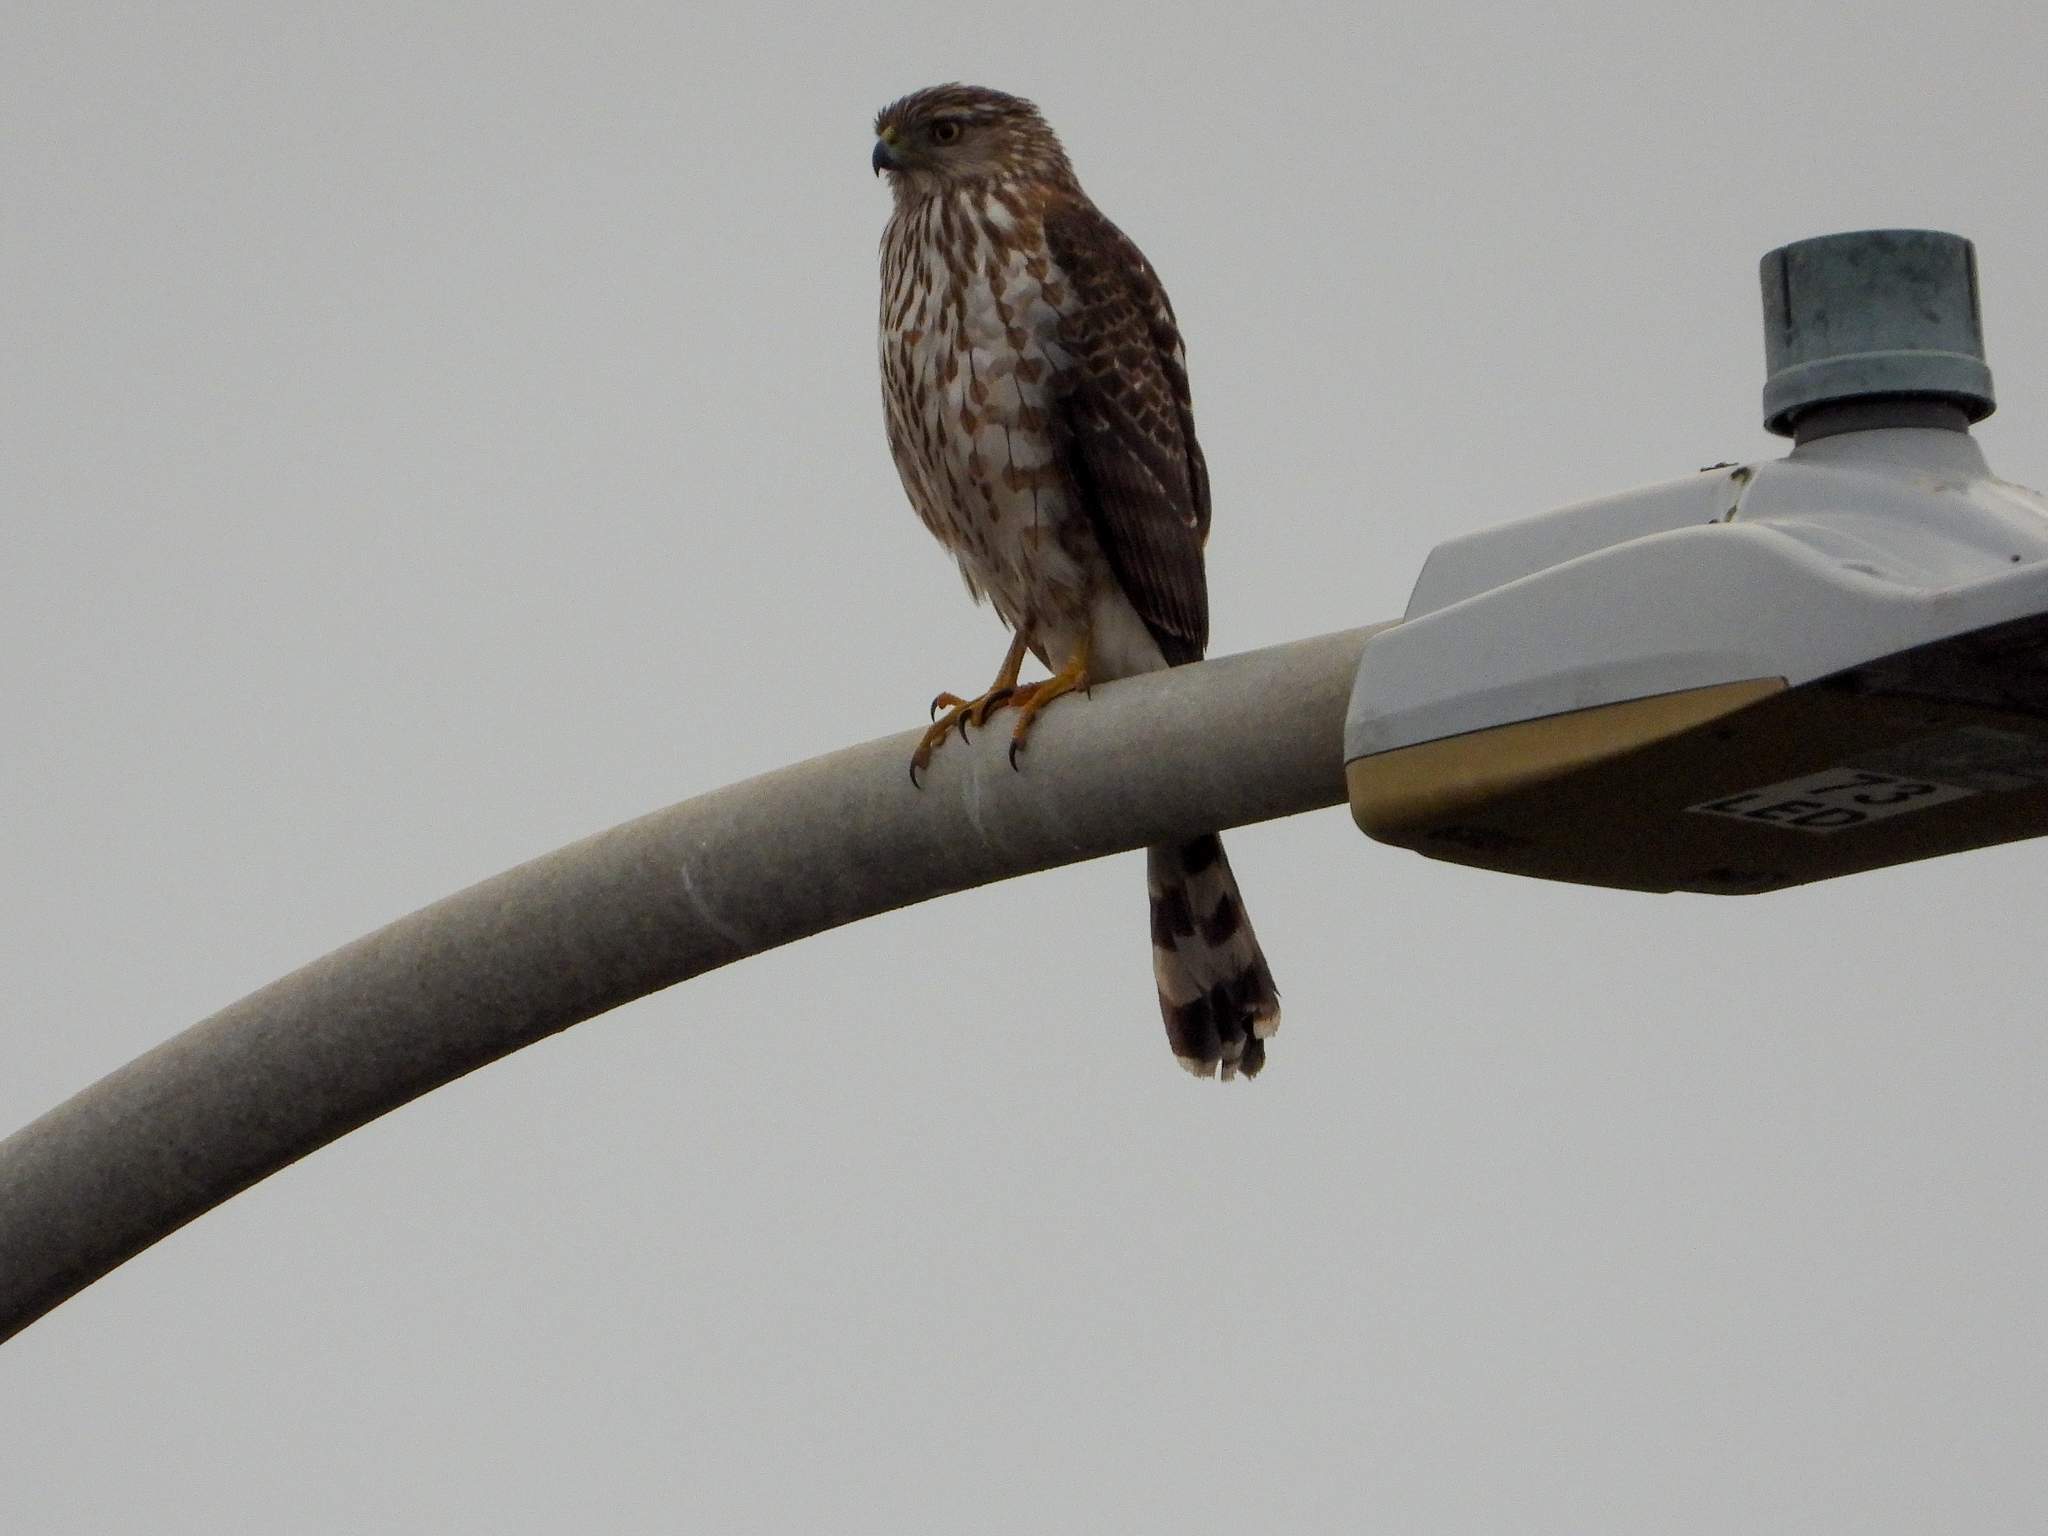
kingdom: Animalia
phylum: Chordata
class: Aves
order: Accipitriformes
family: Accipitridae
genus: Accipiter
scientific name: Accipiter cooperii
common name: Cooper's hawk
